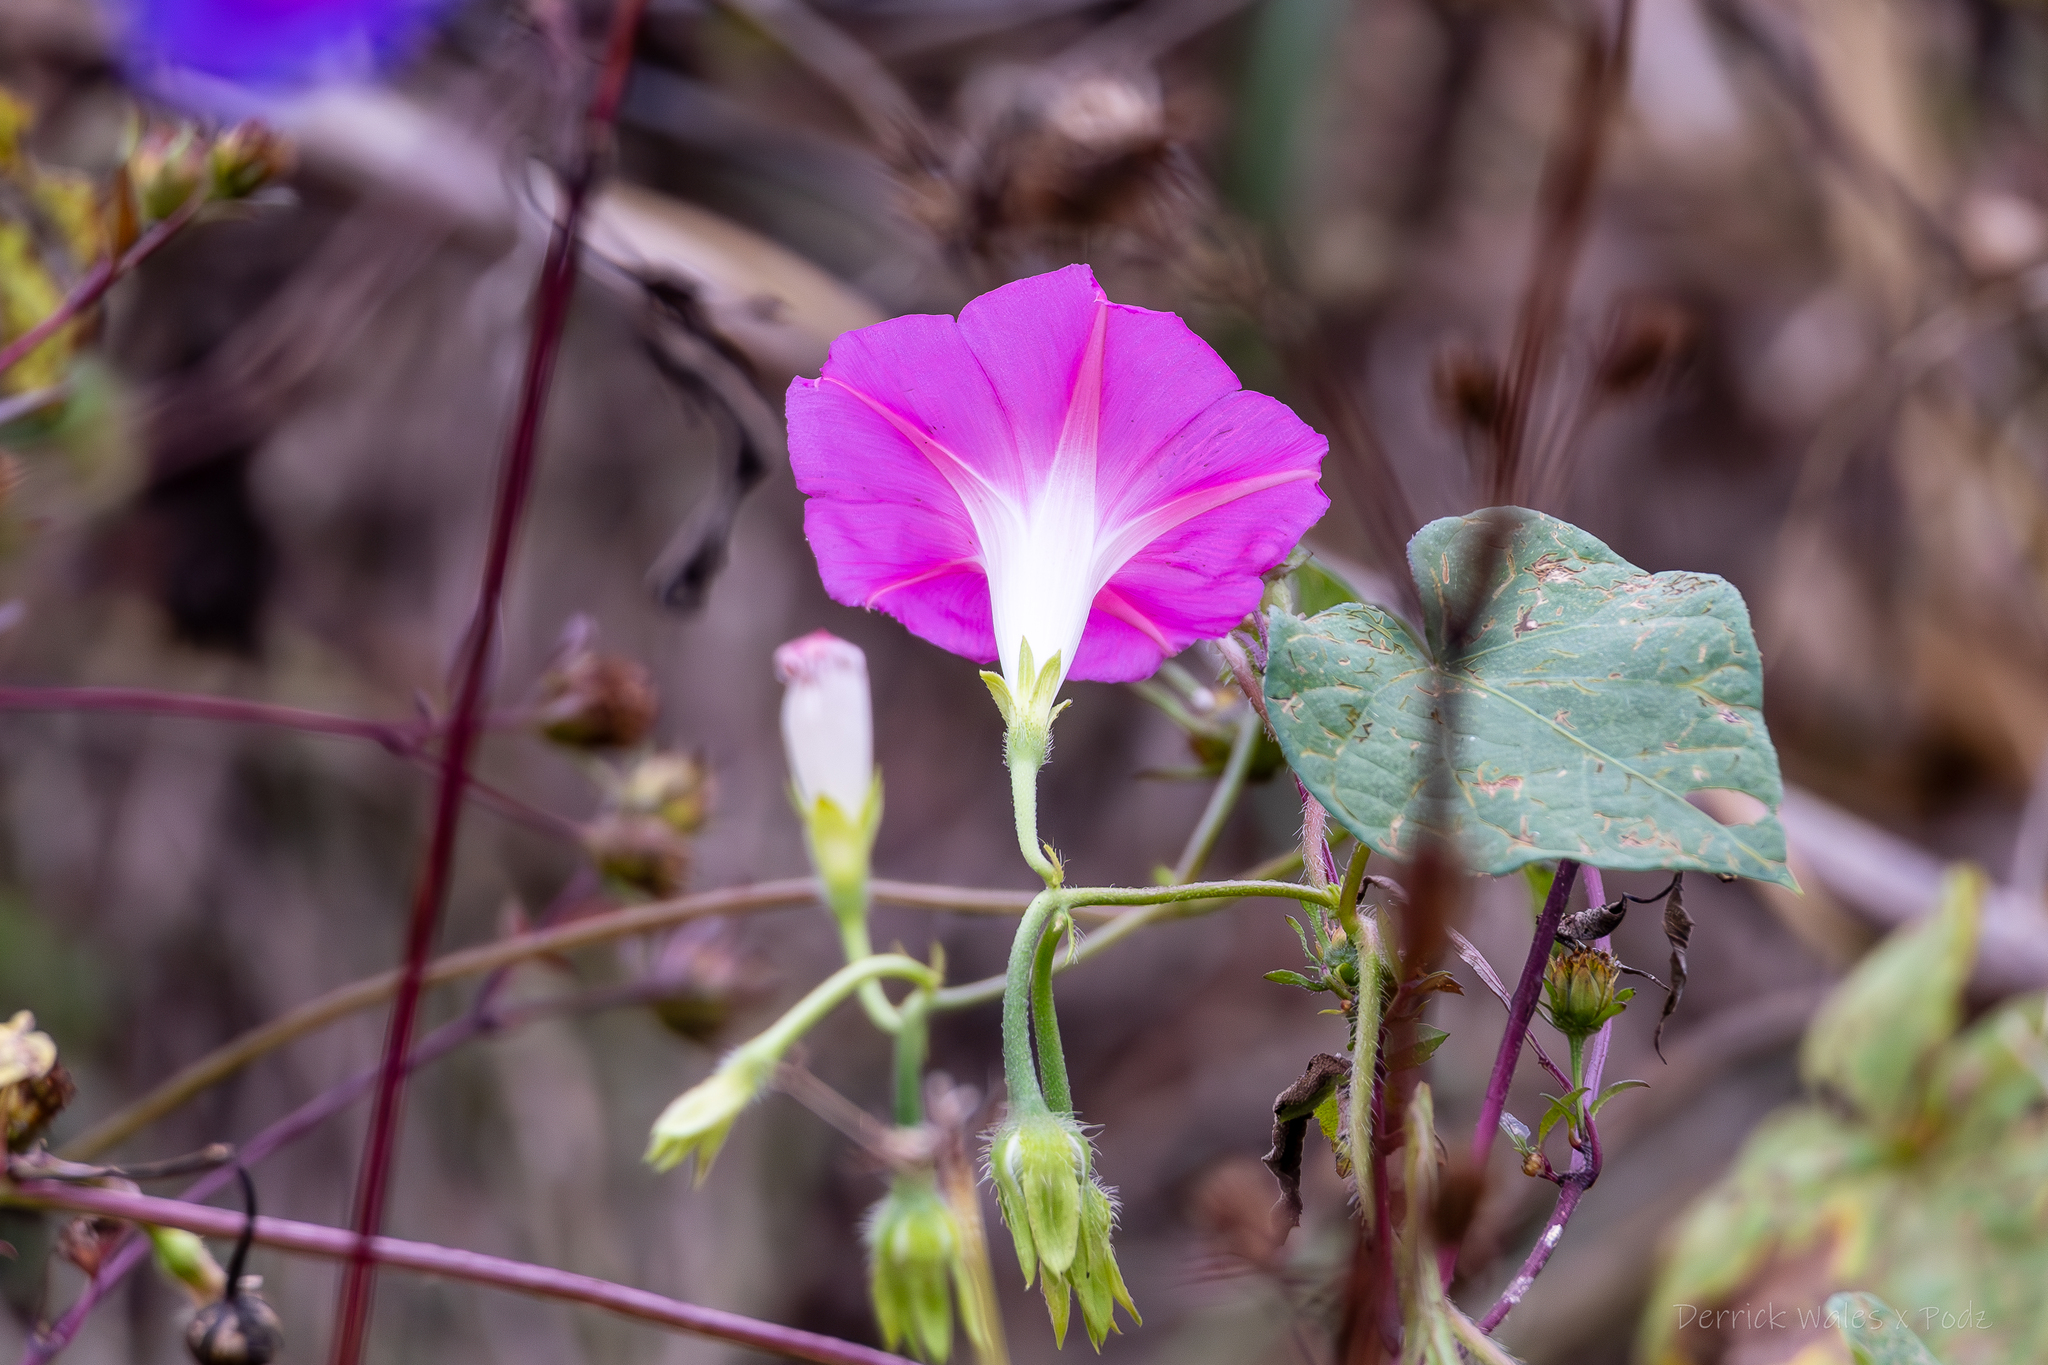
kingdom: Plantae
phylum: Tracheophyta
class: Magnoliopsida
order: Solanales
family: Convolvulaceae
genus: Ipomoea
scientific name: Ipomoea purpurea
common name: Common morning-glory
